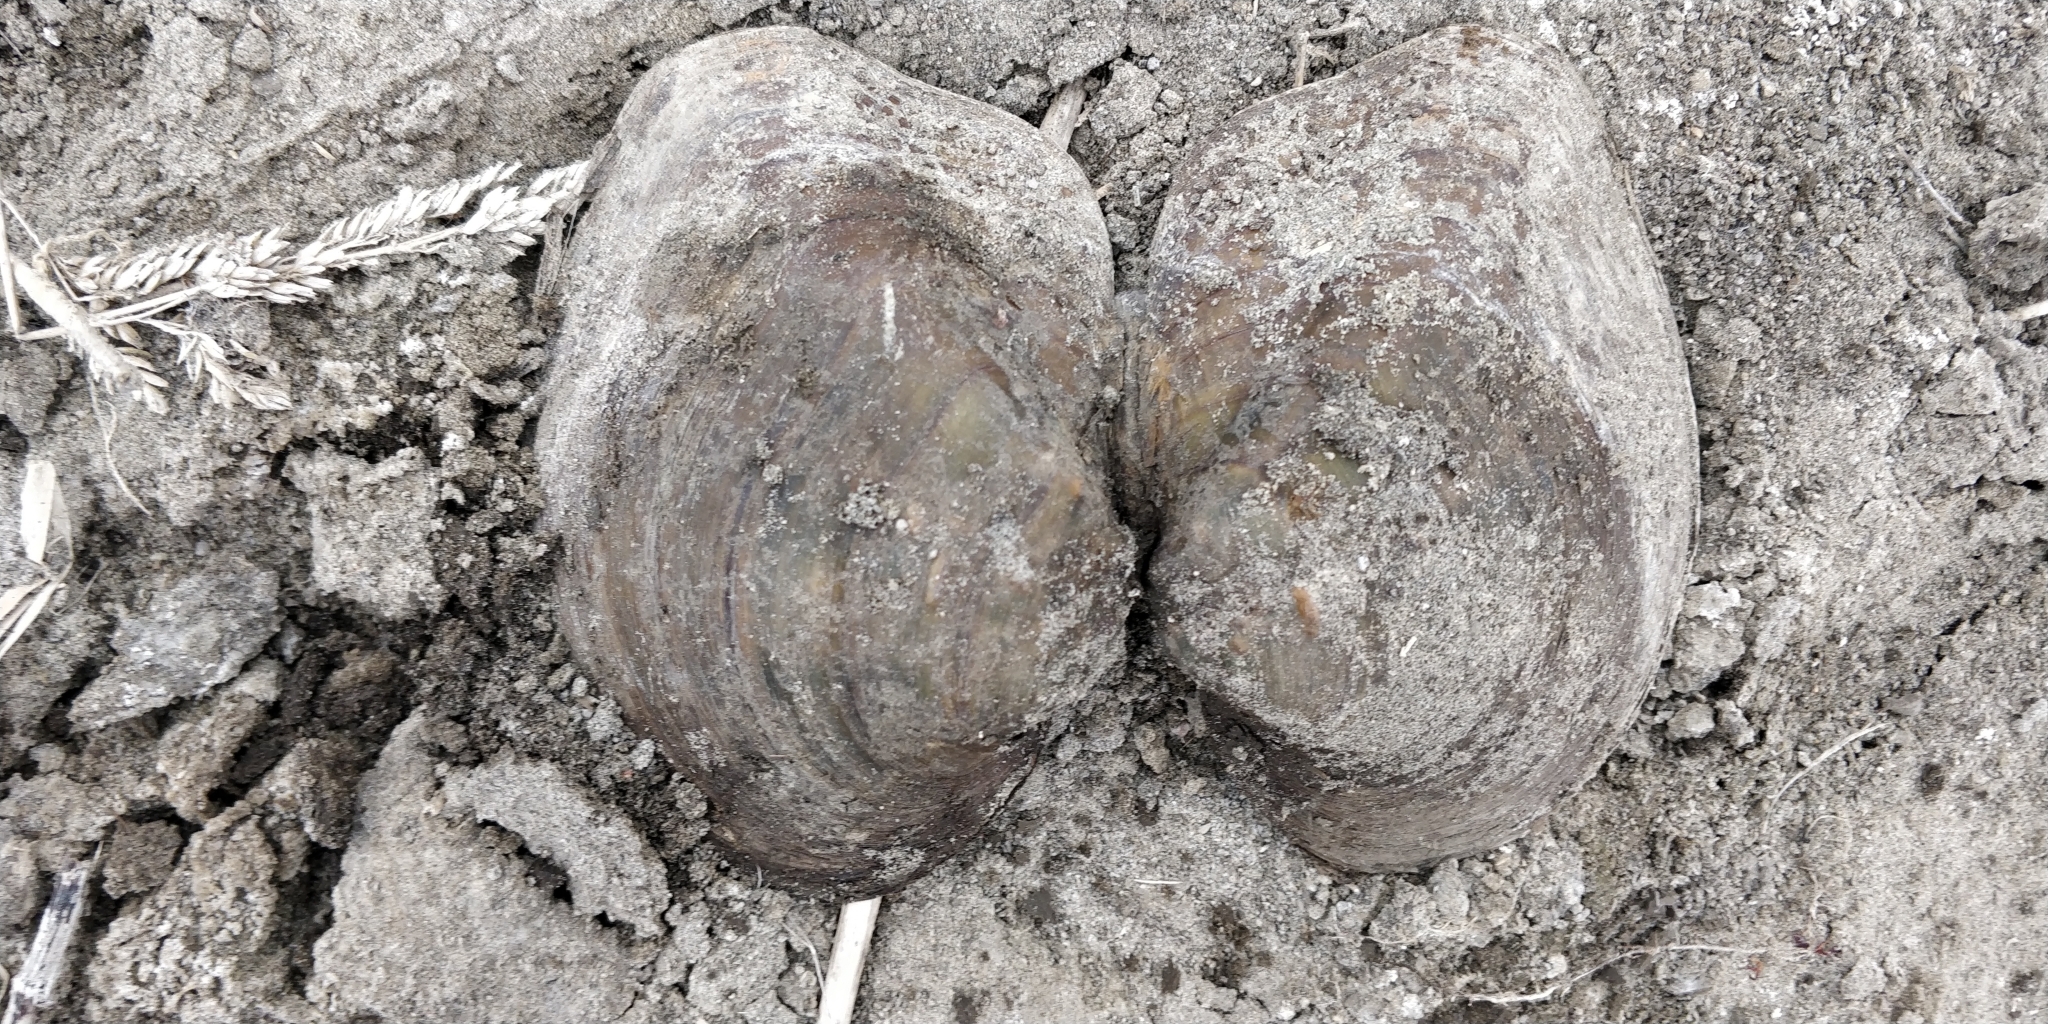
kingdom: Animalia
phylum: Mollusca
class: Bivalvia
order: Unionida
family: Unionidae
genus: Quadrula
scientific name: Quadrula quadrula
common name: Mapleleaf
